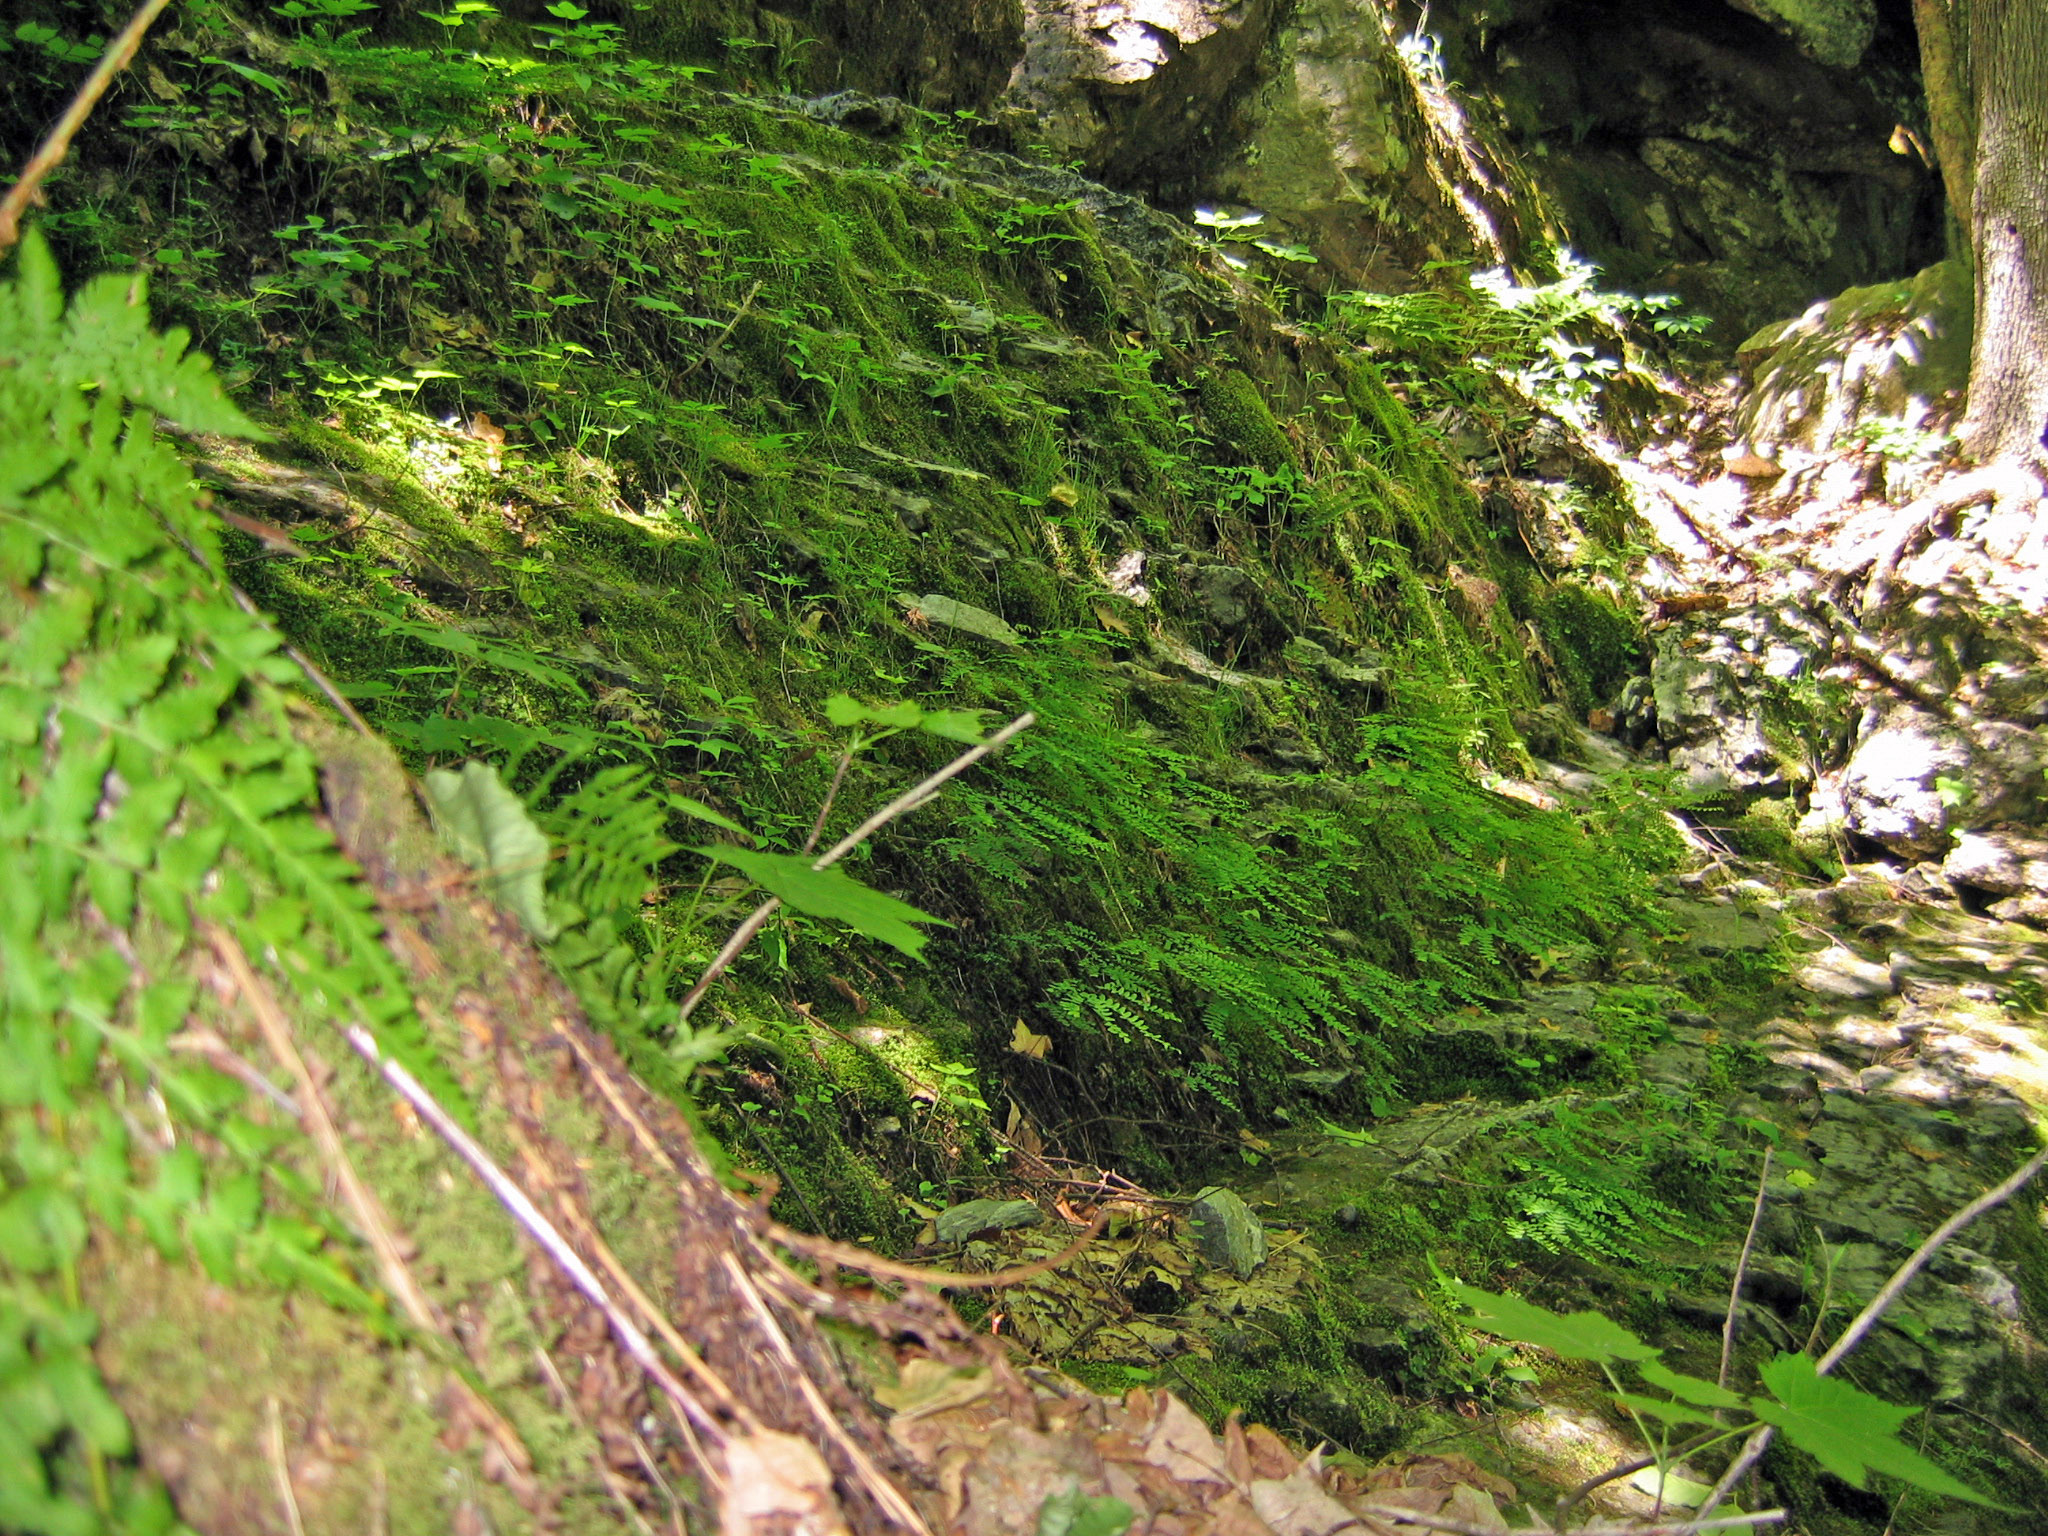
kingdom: Plantae
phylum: Tracheophyta
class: Polypodiopsida
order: Polypodiales
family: Pteridaceae
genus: Adiantum
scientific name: Adiantum pedatum
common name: Five-finger fern
